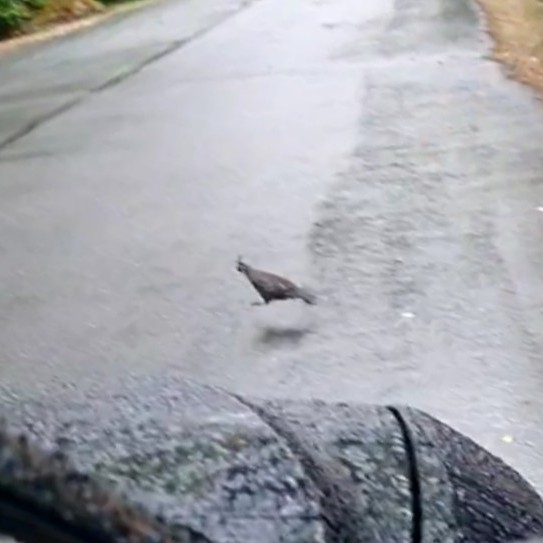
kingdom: Animalia
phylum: Chordata
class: Aves
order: Galliformes
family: Odontophoridae
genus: Callipepla
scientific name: Callipepla californica
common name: California quail
